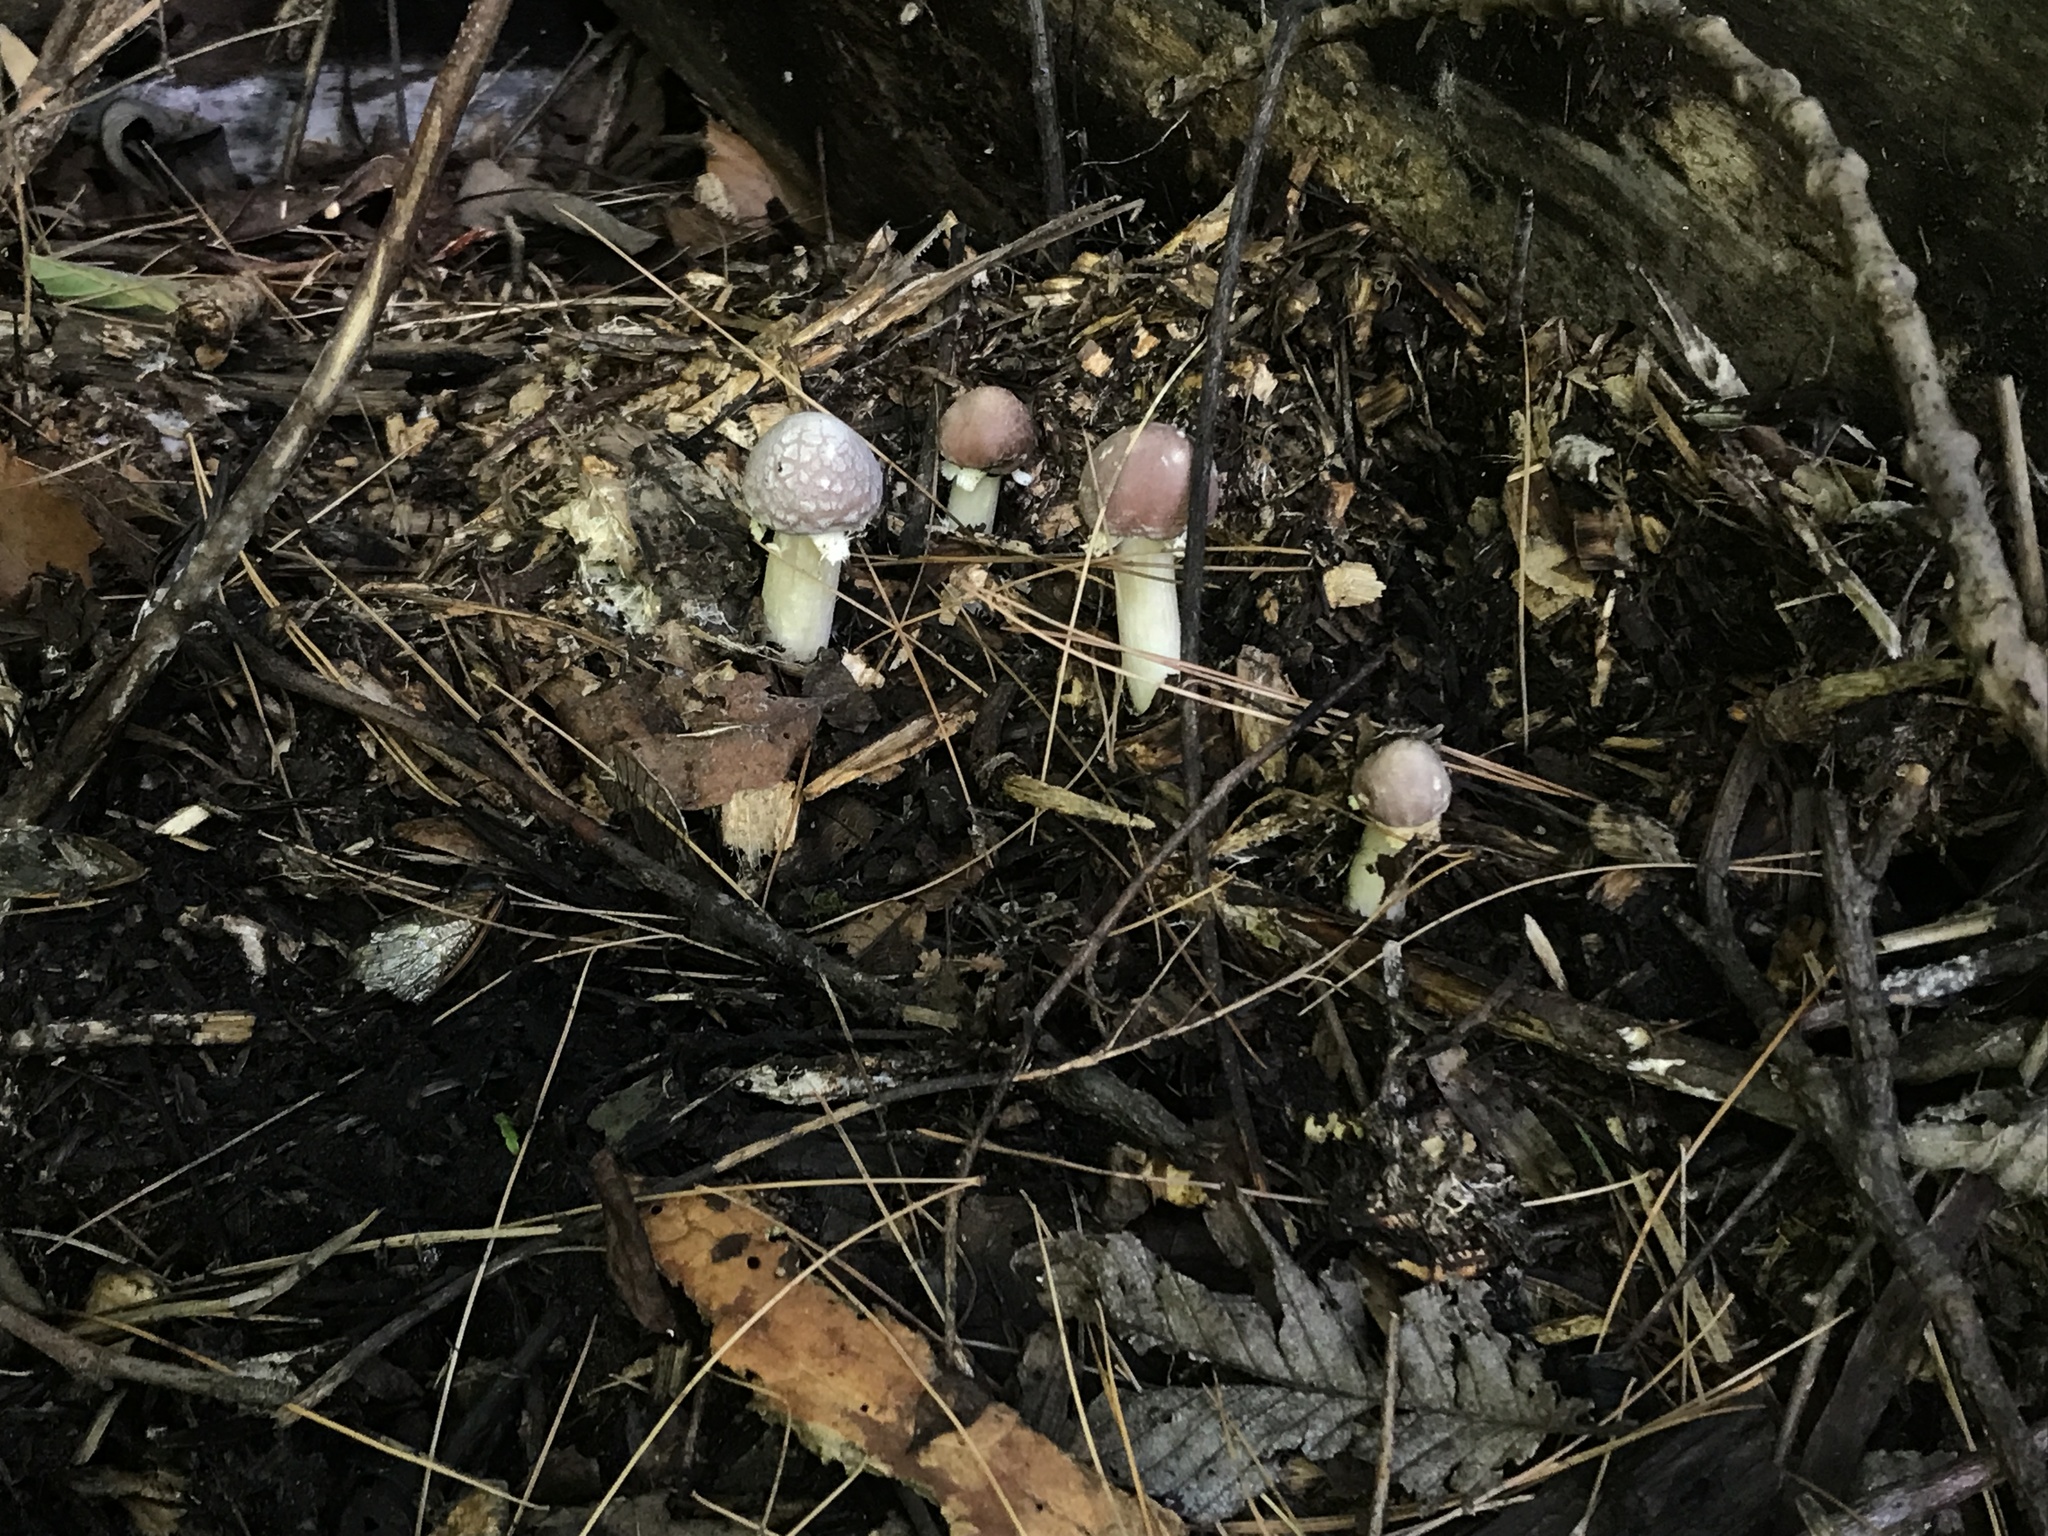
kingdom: Fungi
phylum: Basidiomycota
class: Agaricomycetes
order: Agaricales
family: Strophariaceae
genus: Stropharia
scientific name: Stropharia rugosoannulata
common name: Wine roundhead
